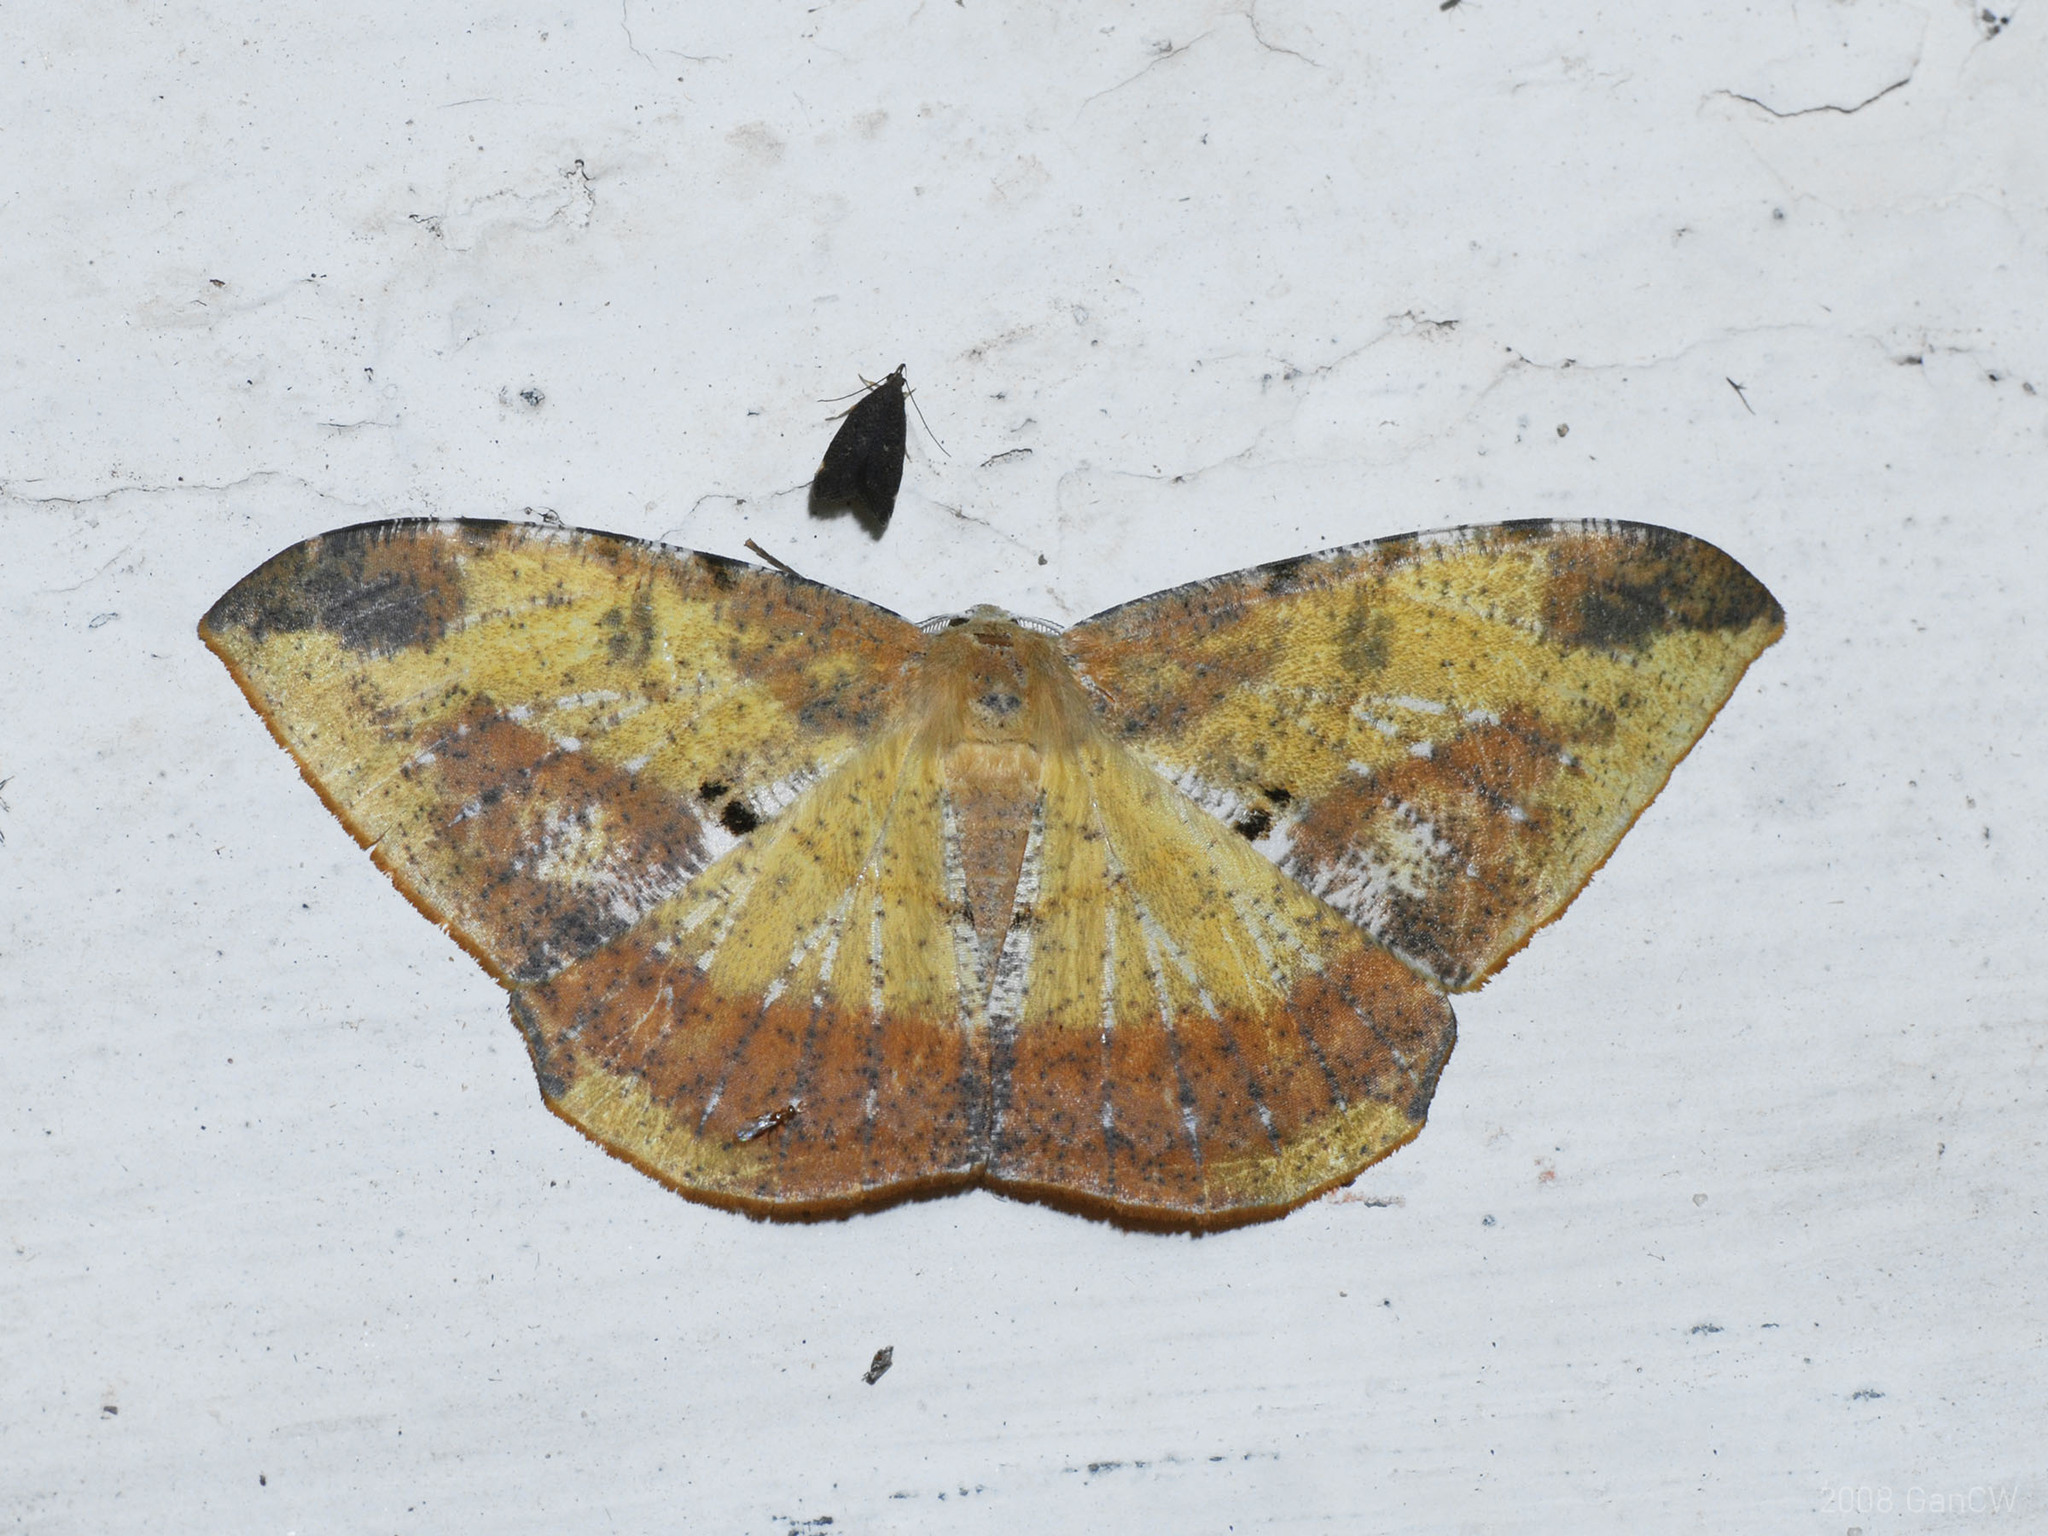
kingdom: Animalia
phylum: Arthropoda
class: Insecta
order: Lepidoptera
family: Geometridae
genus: Dalima
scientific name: Dalima subflavata
